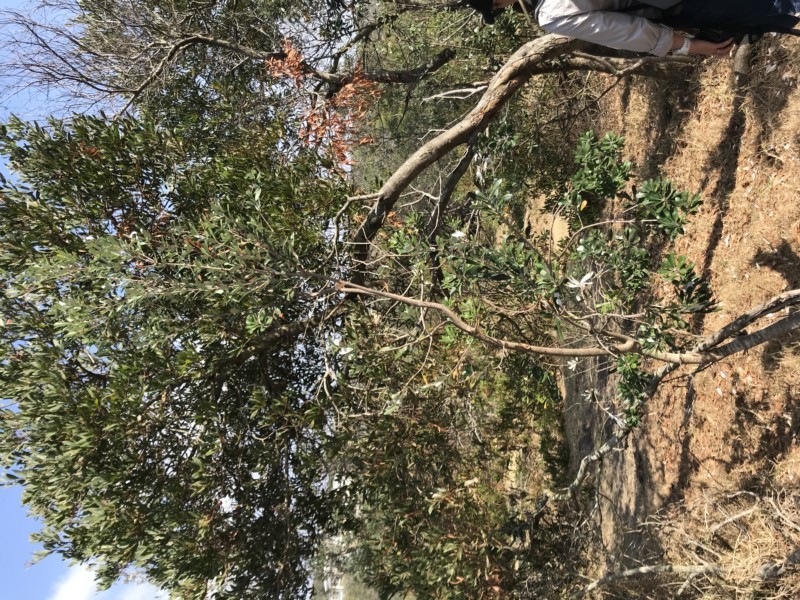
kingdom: Plantae
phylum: Tracheophyta
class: Magnoliopsida
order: Proteales
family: Proteaceae
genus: Banksia
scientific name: Banksia integrifolia
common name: White-honeysuckle
